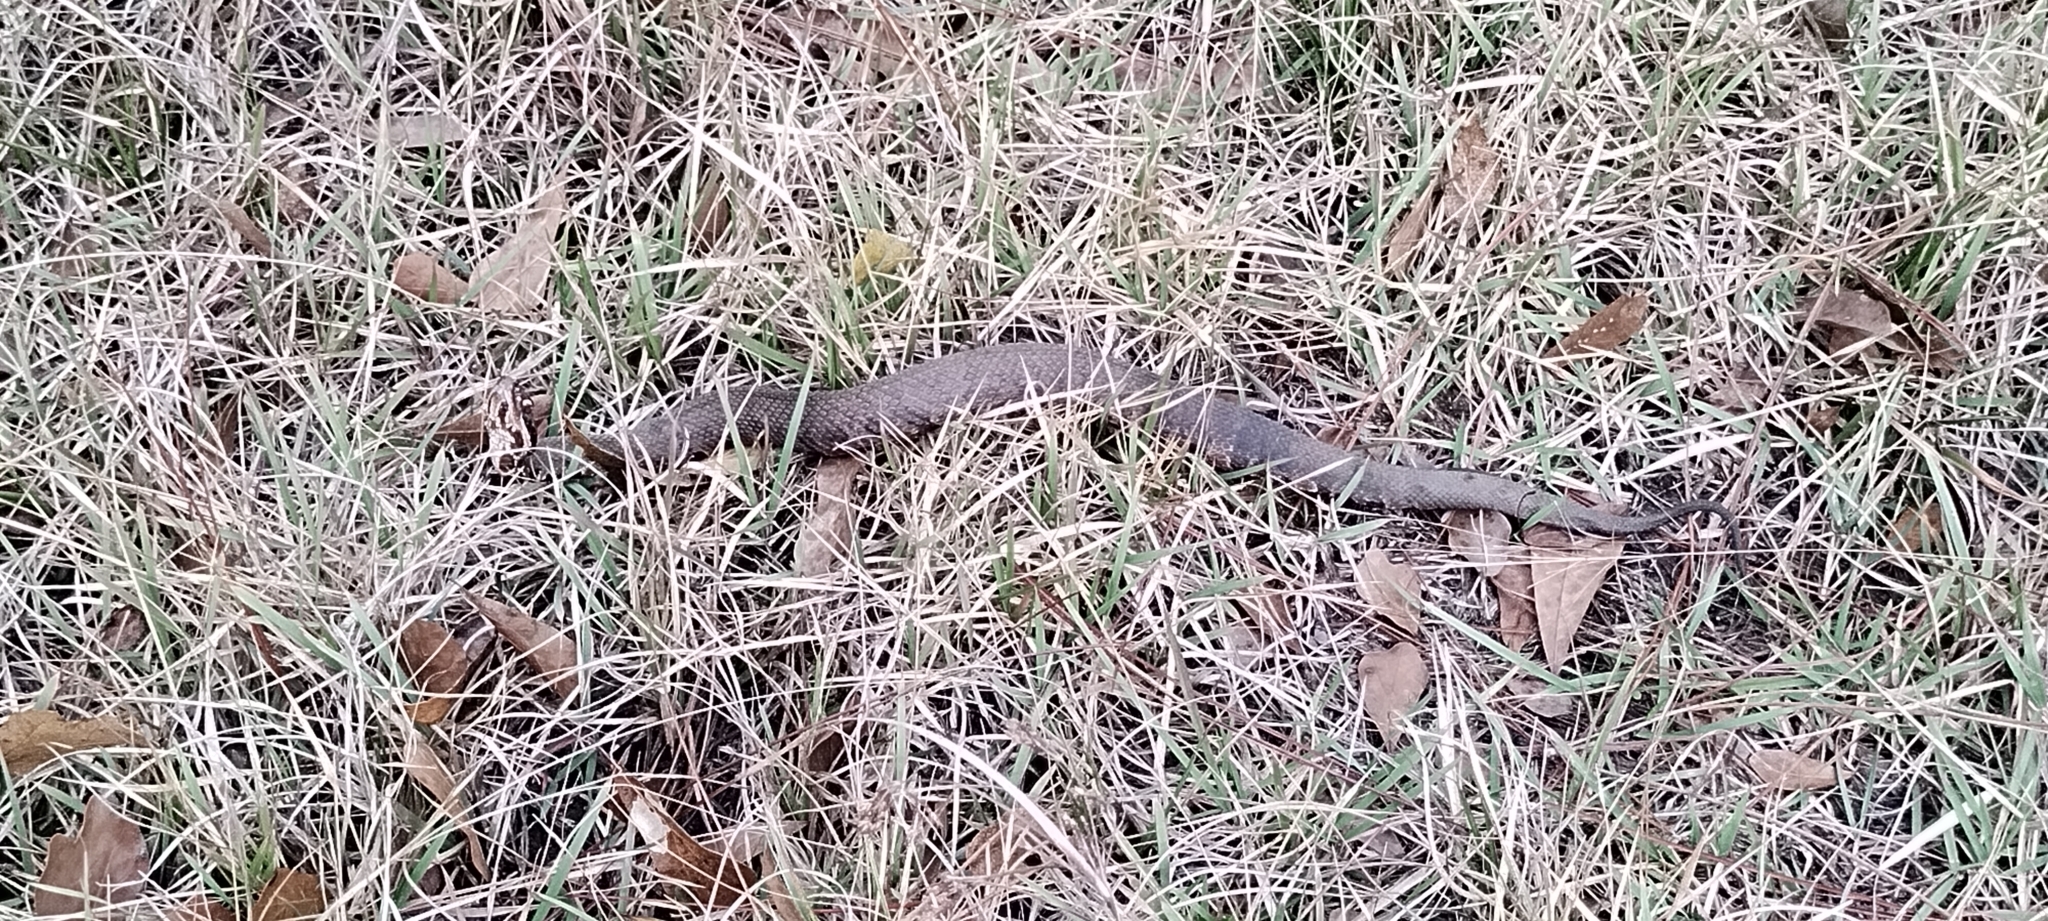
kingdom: Animalia
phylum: Chordata
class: Squamata
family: Viperidae
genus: Agkistrodon
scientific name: Agkistrodon piscivorus
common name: Cottonmouth
